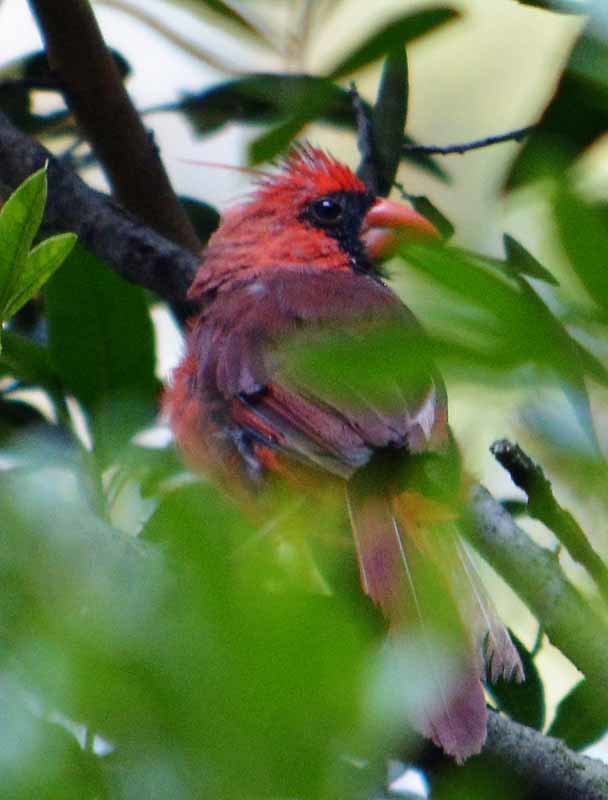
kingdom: Animalia
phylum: Chordata
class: Aves
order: Passeriformes
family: Cardinalidae
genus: Cardinalis
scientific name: Cardinalis cardinalis
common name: Northern cardinal
